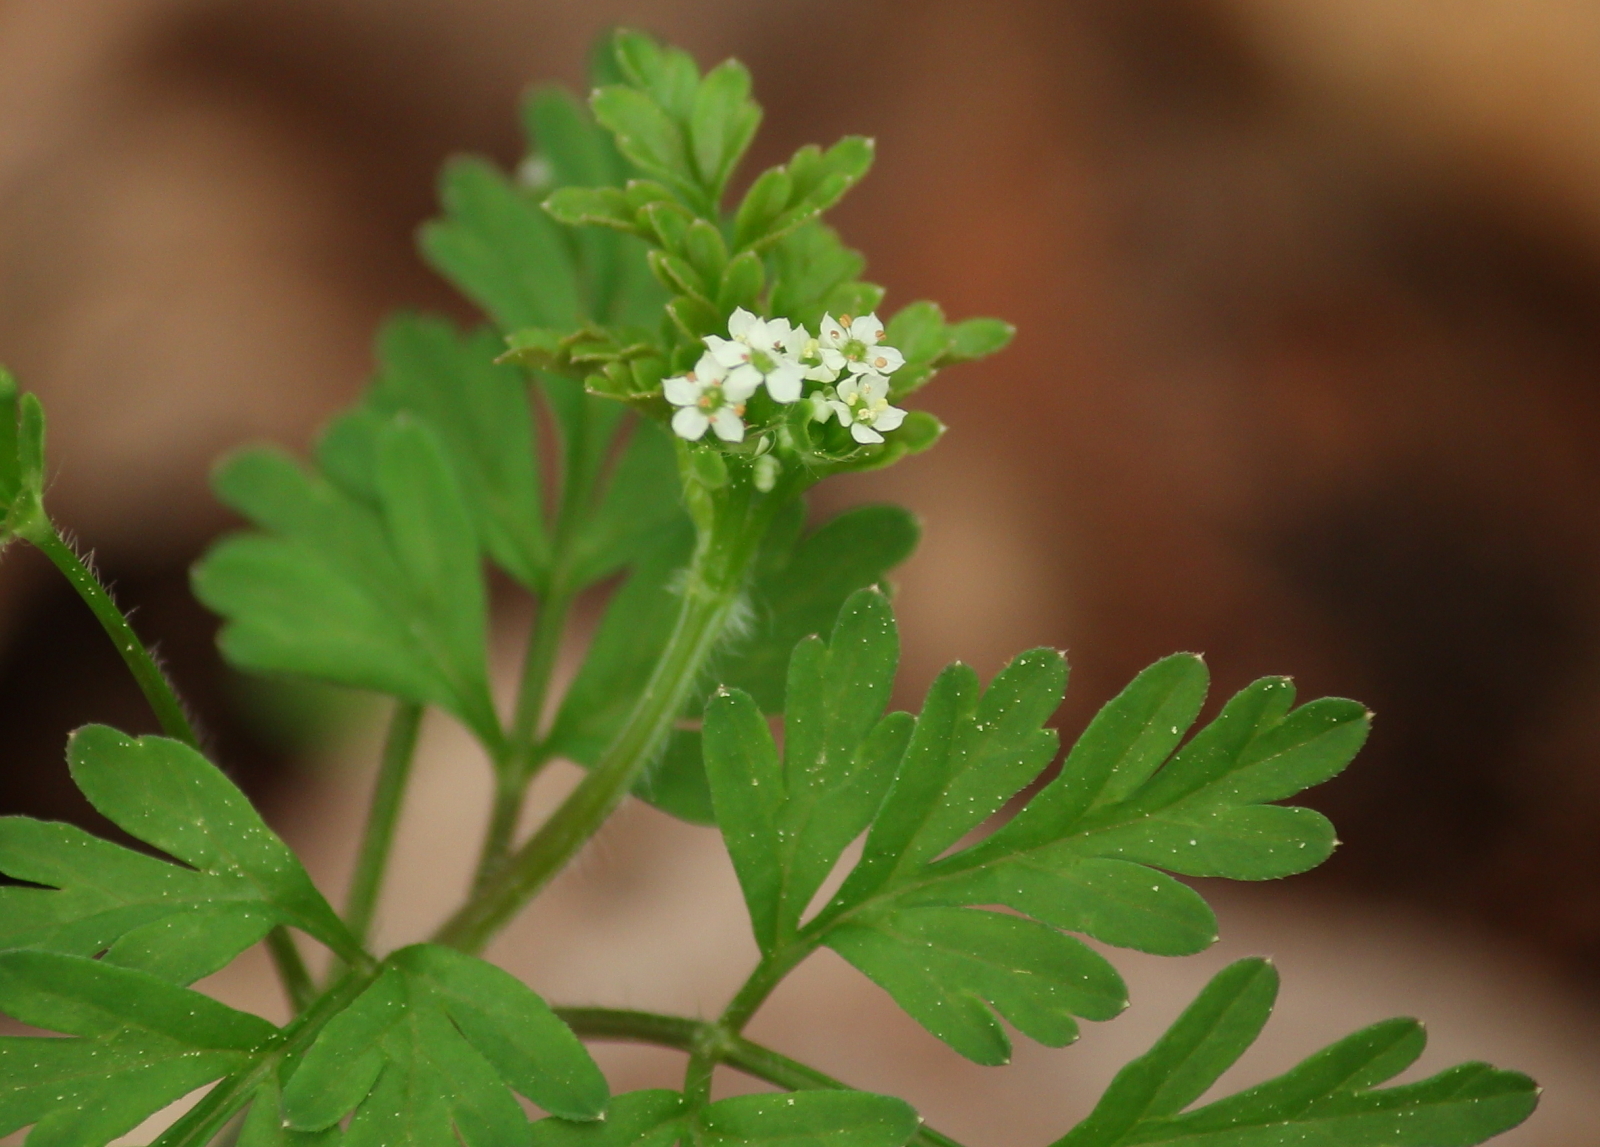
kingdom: Plantae
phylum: Tracheophyta
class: Magnoliopsida
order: Apiales
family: Apiaceae
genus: Chaerophyllum
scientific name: Chaerophyllum procumbens
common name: Spreading chervil
